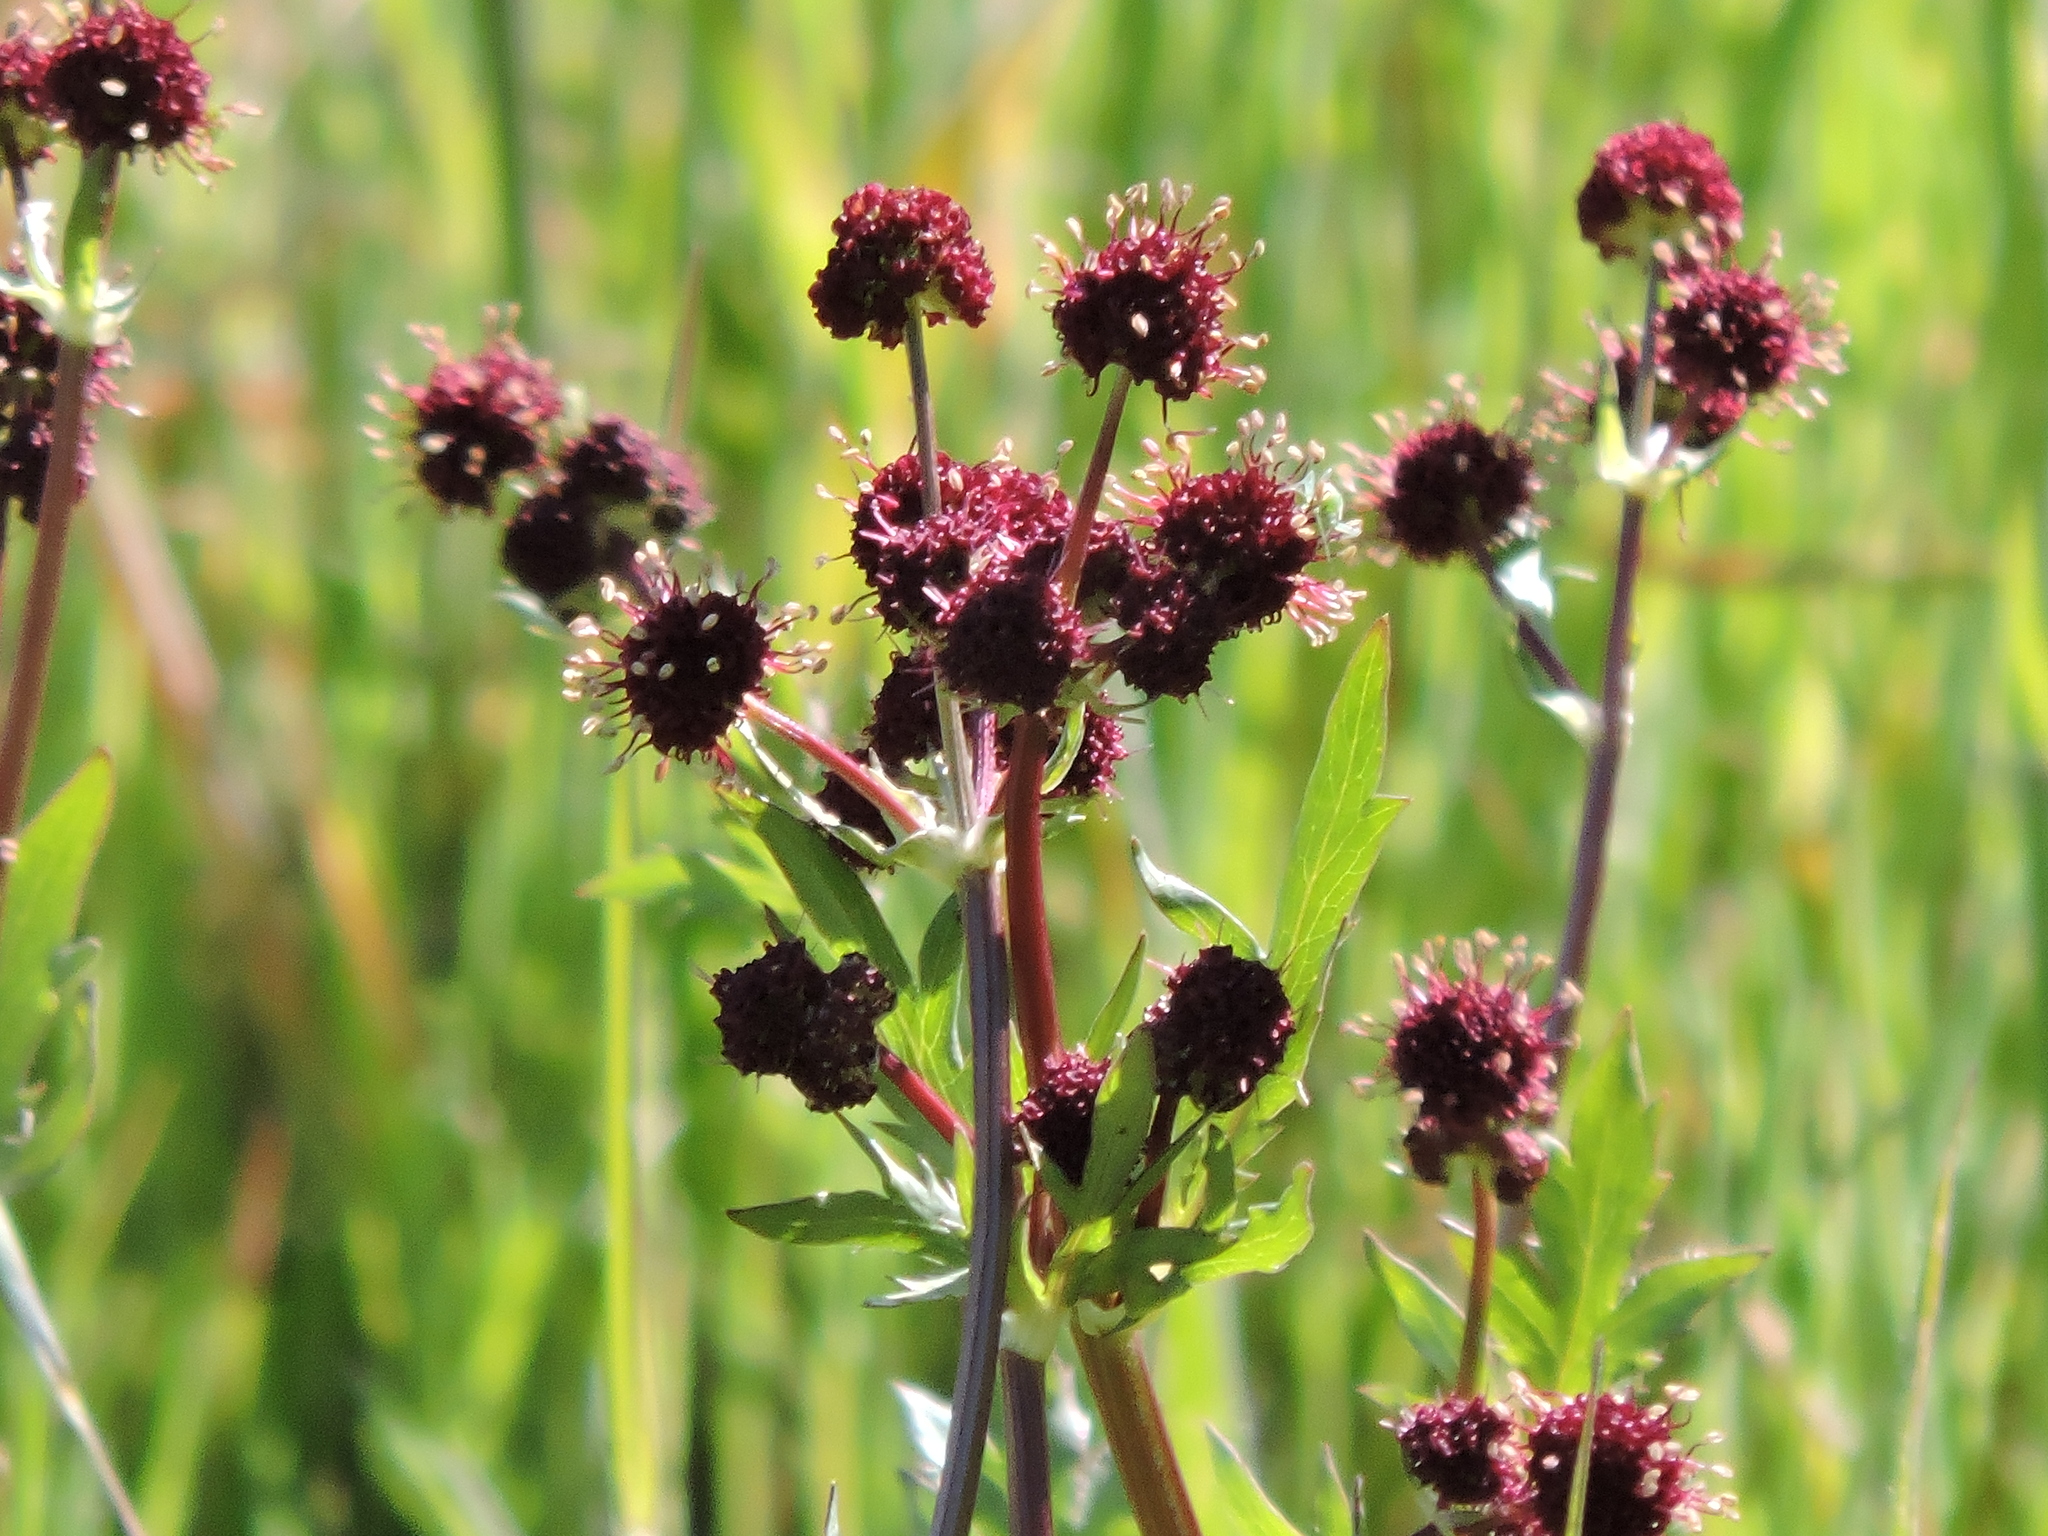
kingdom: Plantae
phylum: Tracheophyta
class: Magnoliopsida
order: Apiales
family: Apiaceae
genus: Sanicula
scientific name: Sanicula bipinnatifida
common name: Shoe-buttons
